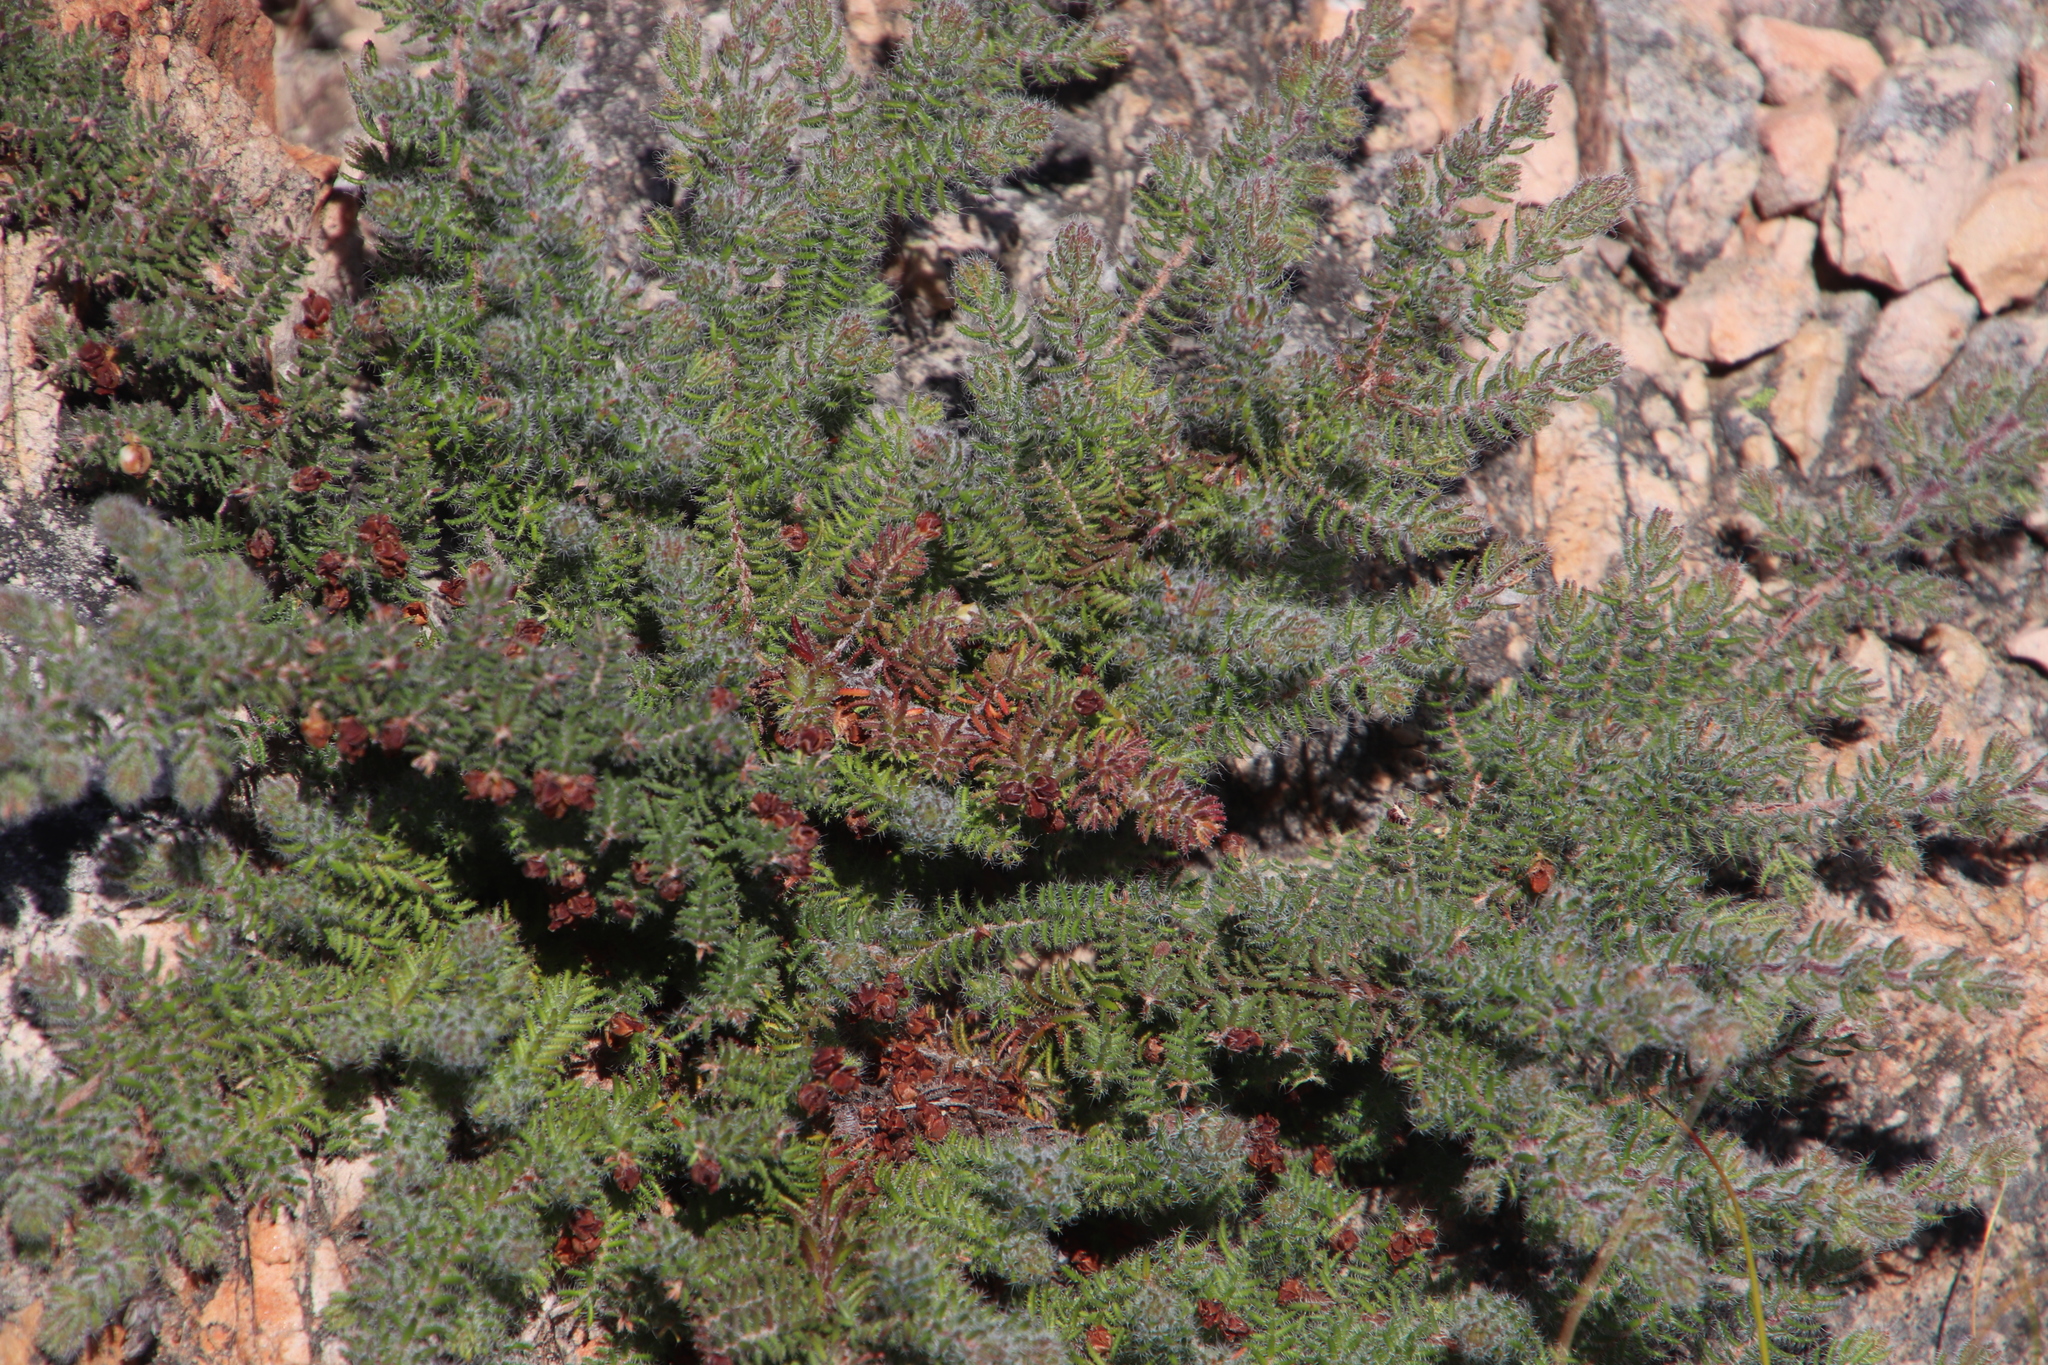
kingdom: Plantae
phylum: Tracheophyta
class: Magnoliopsida
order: Ericales
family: Ericaceae
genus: Erica
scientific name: Erica totta
